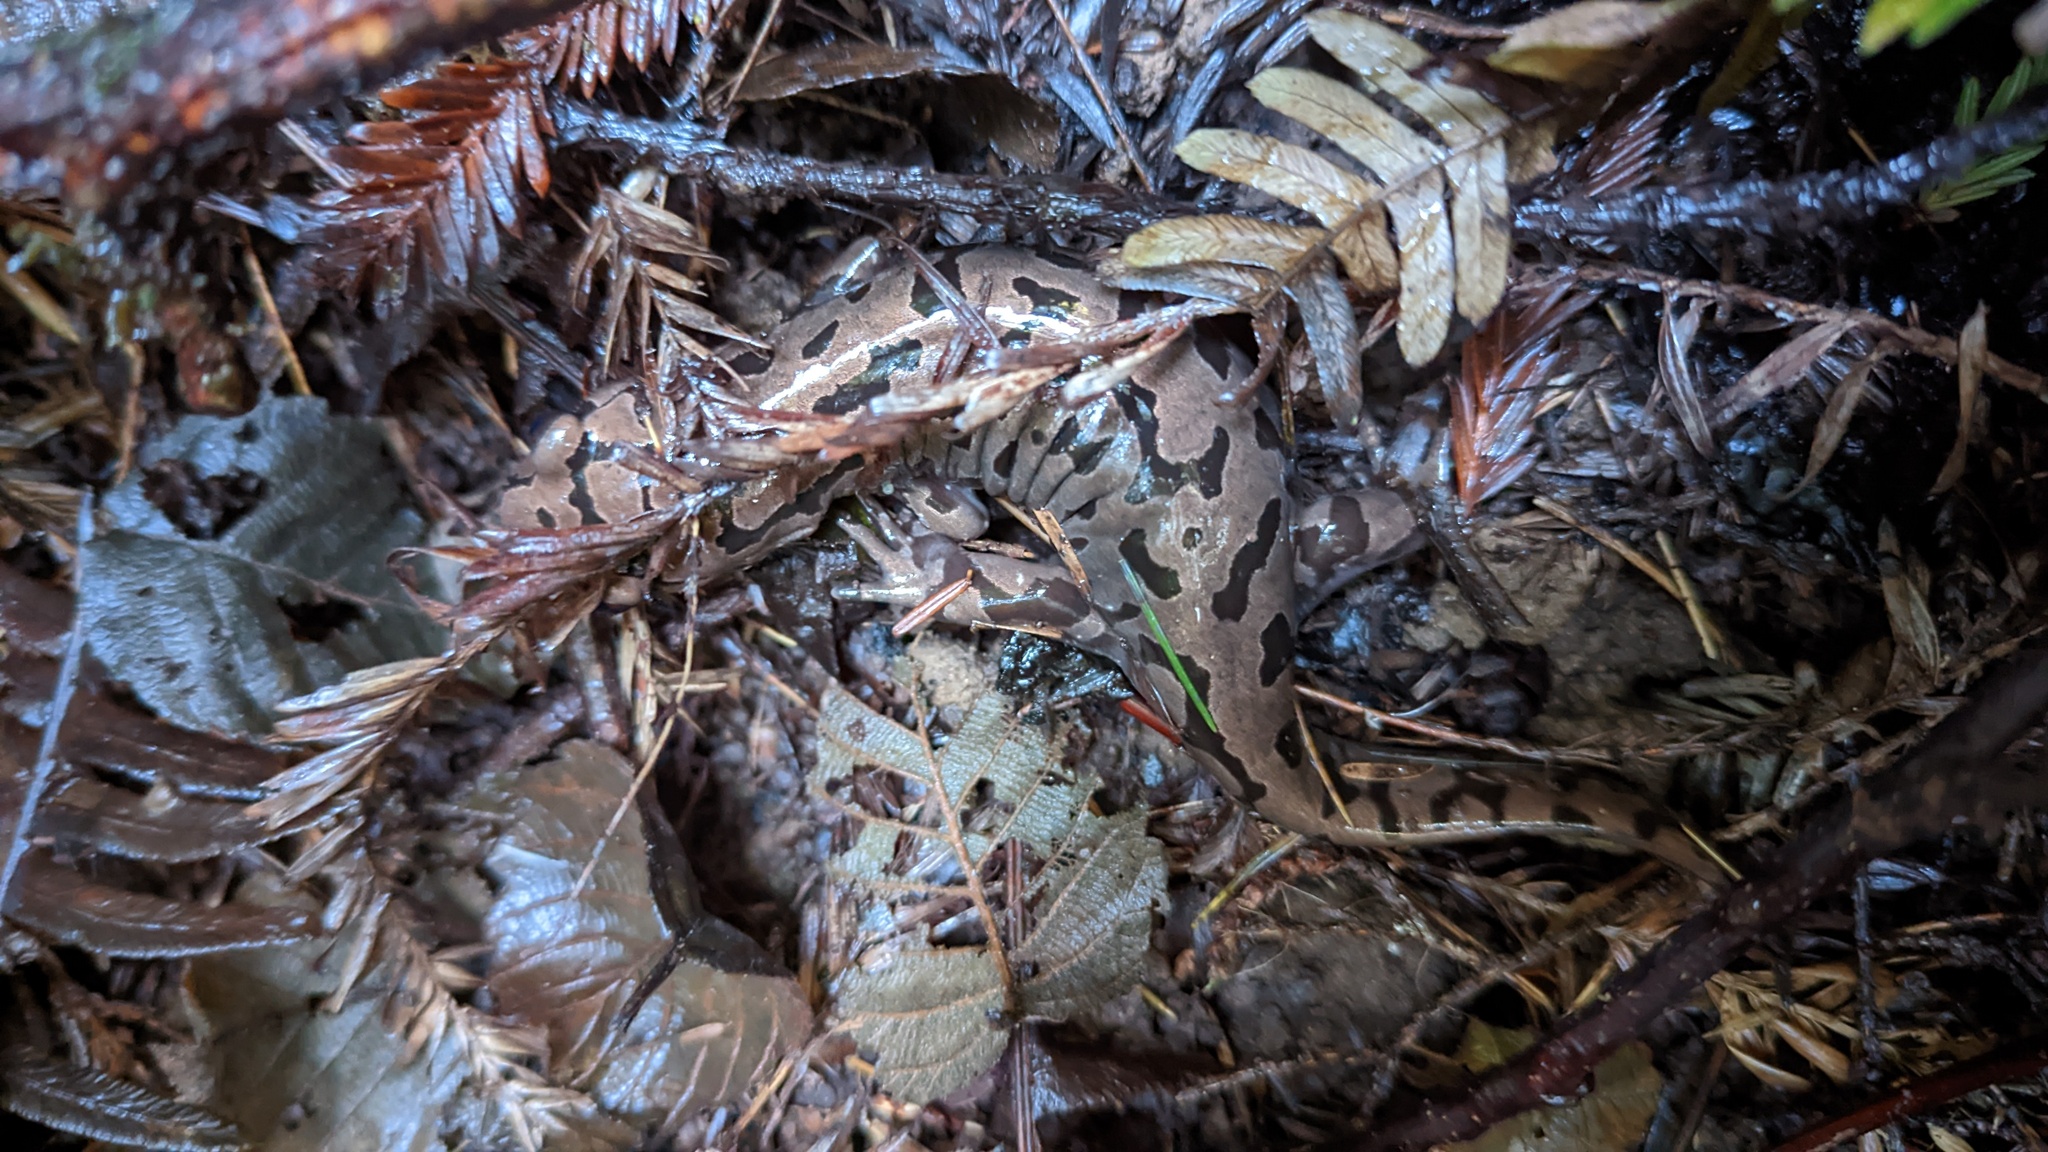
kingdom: Animalia
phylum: Chordata
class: Amphibia
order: Caudata
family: Ambystomatidae
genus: Dicamptodon
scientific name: Dicamptodon tenebrosus
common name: Coastal giant salamander
